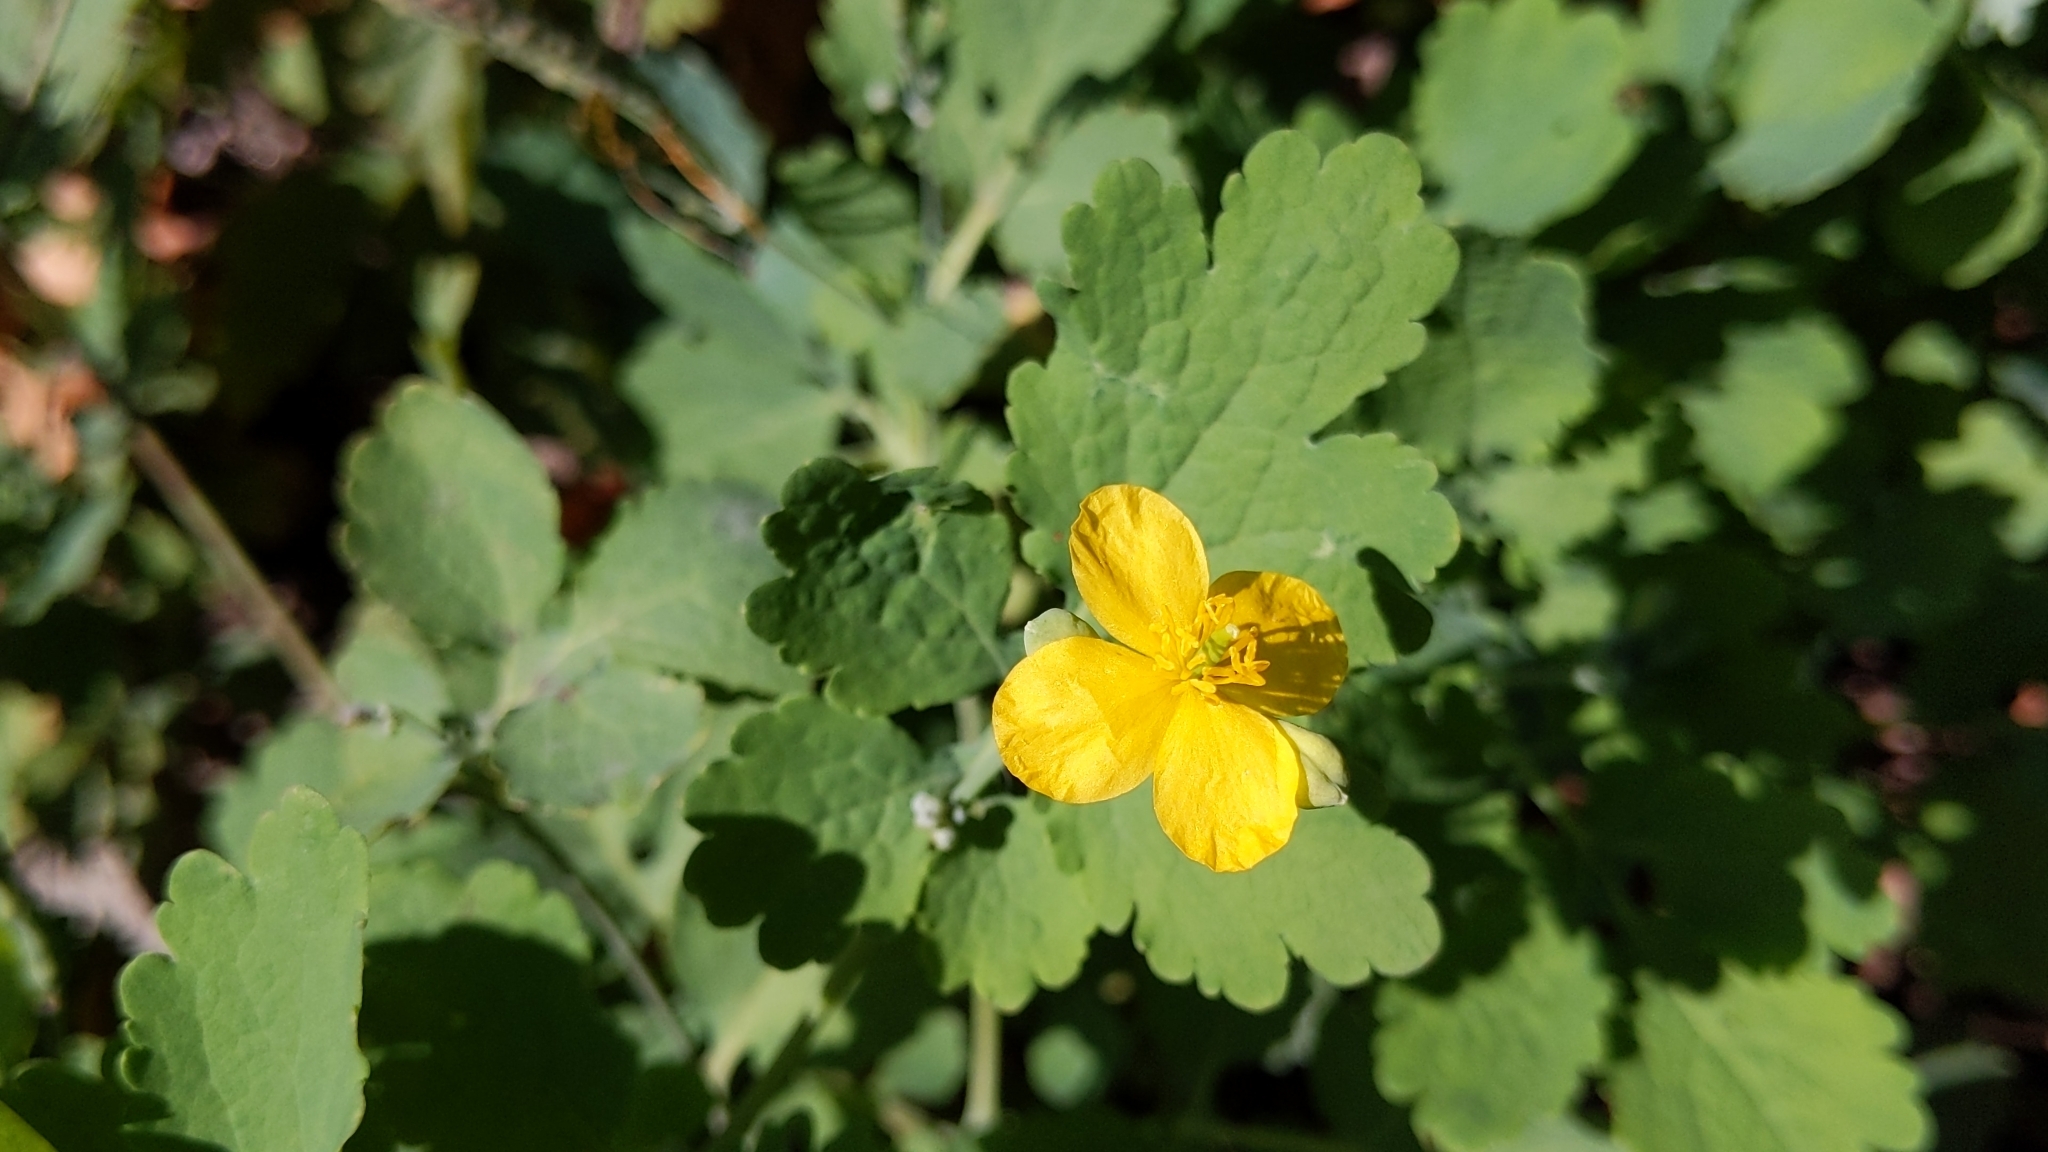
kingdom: Plantae
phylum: Tracheophyta
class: Magnoliopsida
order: Ranunculales
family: Papaveraceae
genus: Chelidonium
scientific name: Chelidonium majus
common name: Greater celandine
